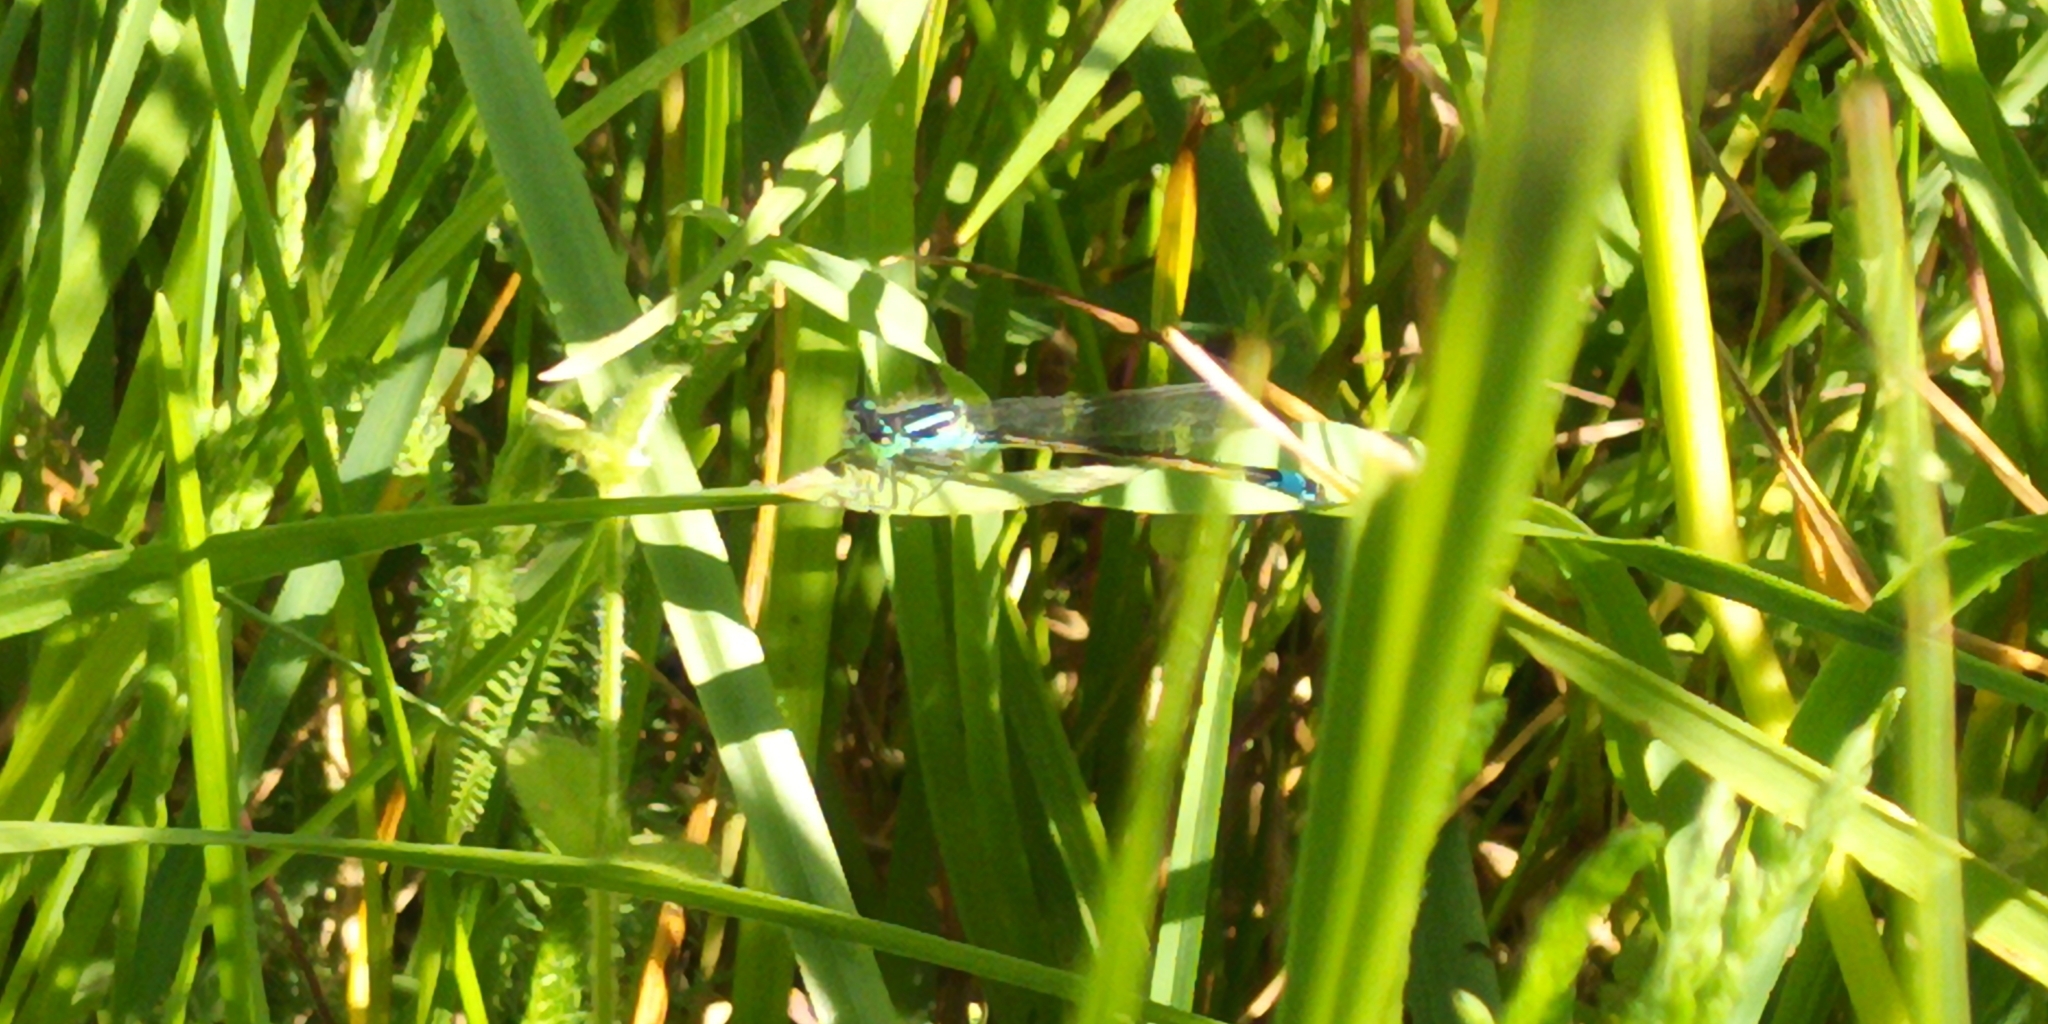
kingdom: Animalia
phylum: Arthropoda
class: Insecta
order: Odonata
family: Coenagrionidae
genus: Ischnura
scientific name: Ischnura elegans
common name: Blue-tailed damselfly
